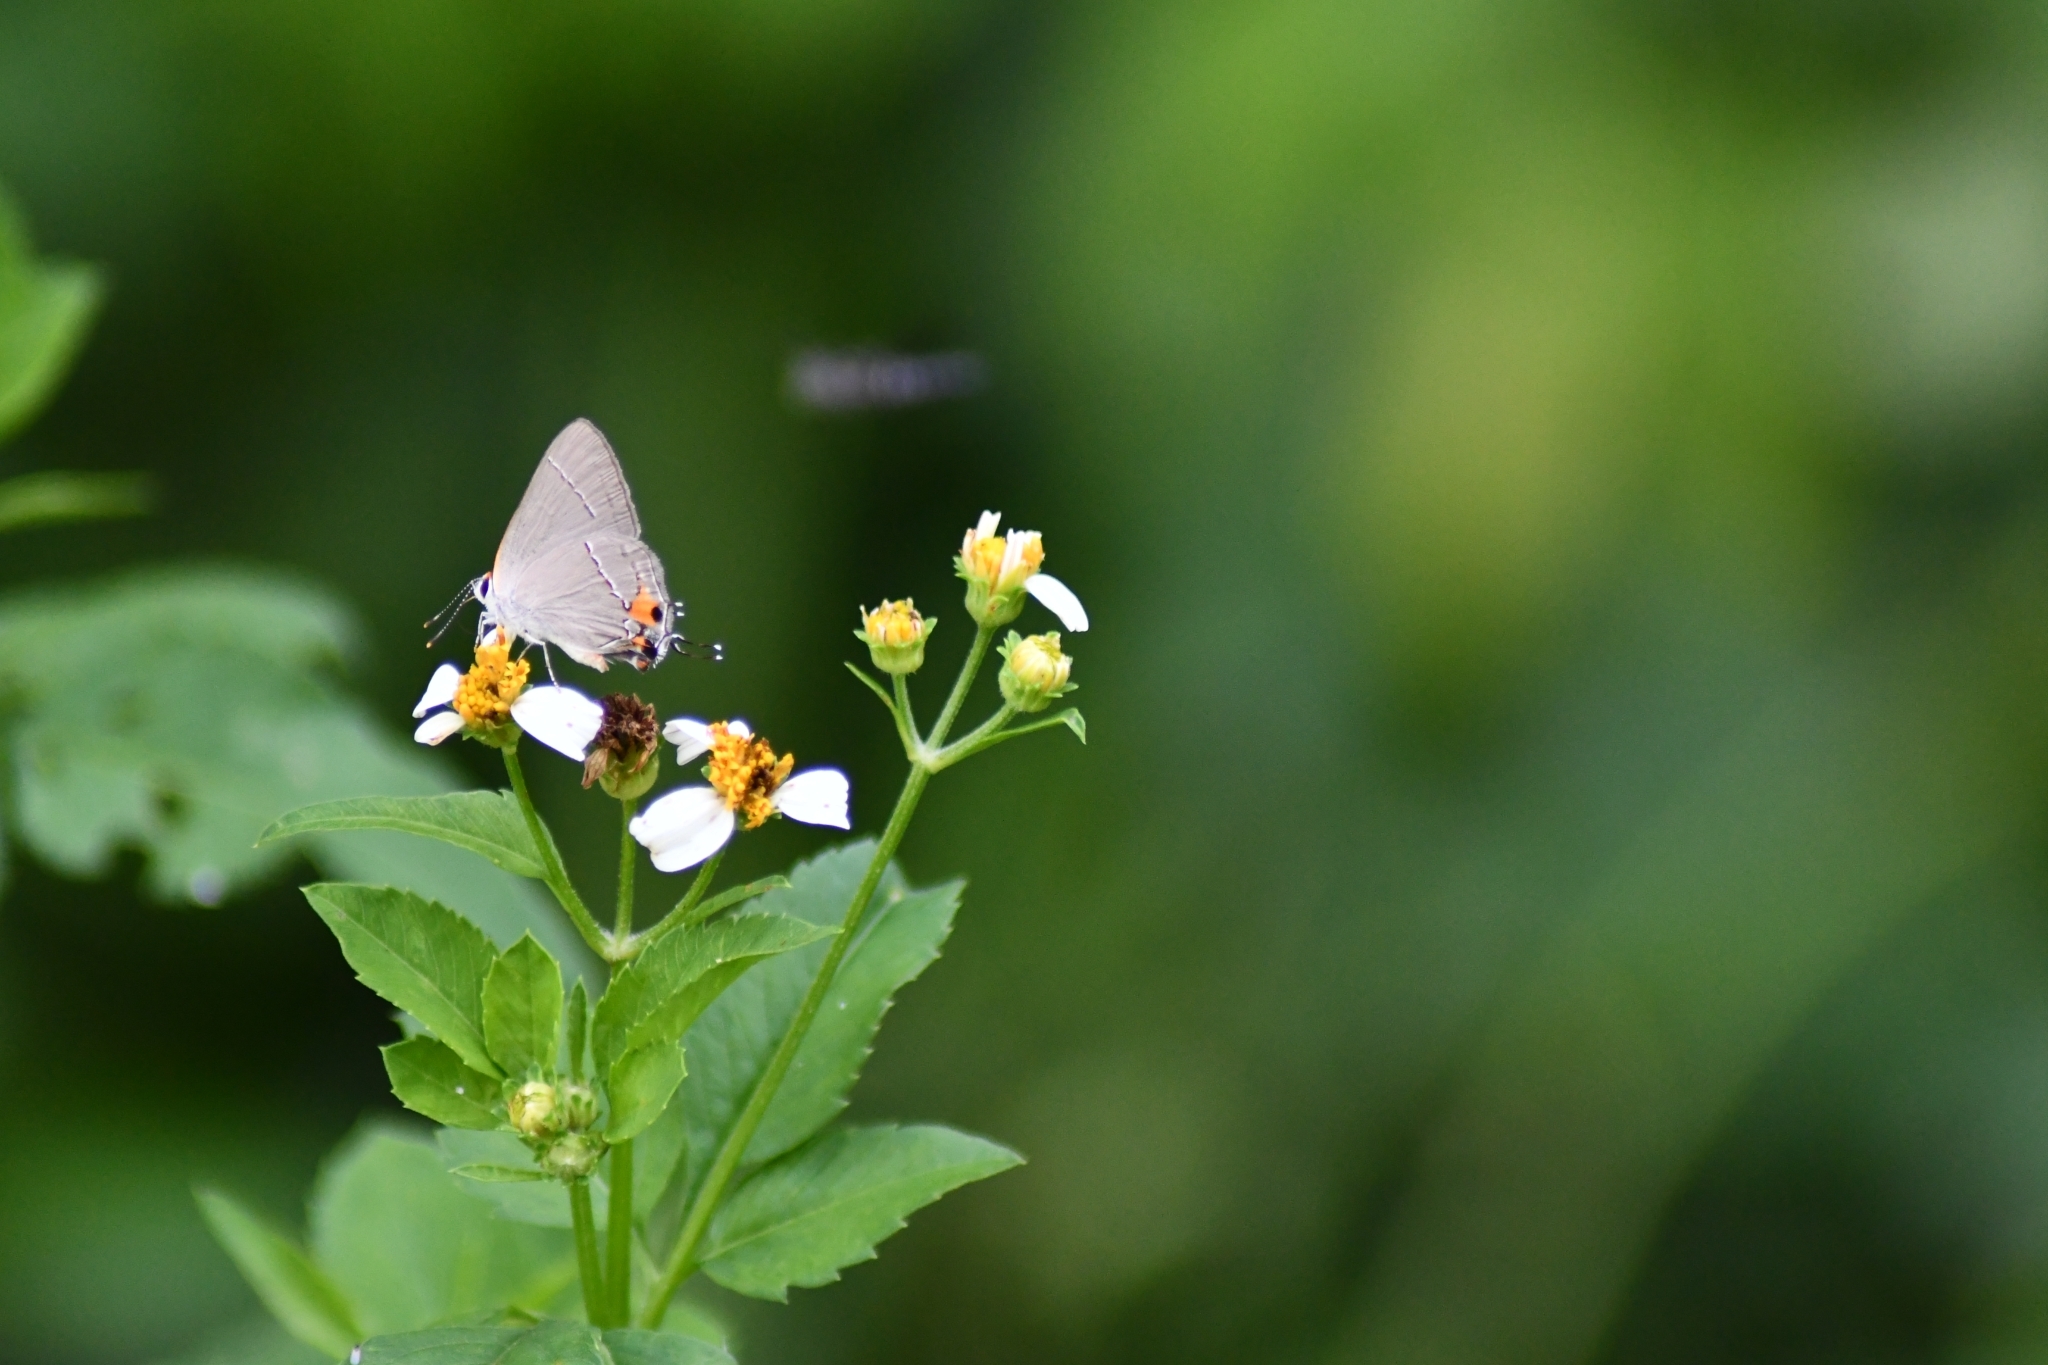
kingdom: Animalia
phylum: Arthropoda
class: Insecta
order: Lepidoptera
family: Lycaenidae
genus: Strymon
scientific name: Strymon melinus
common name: Gray hairstreak
